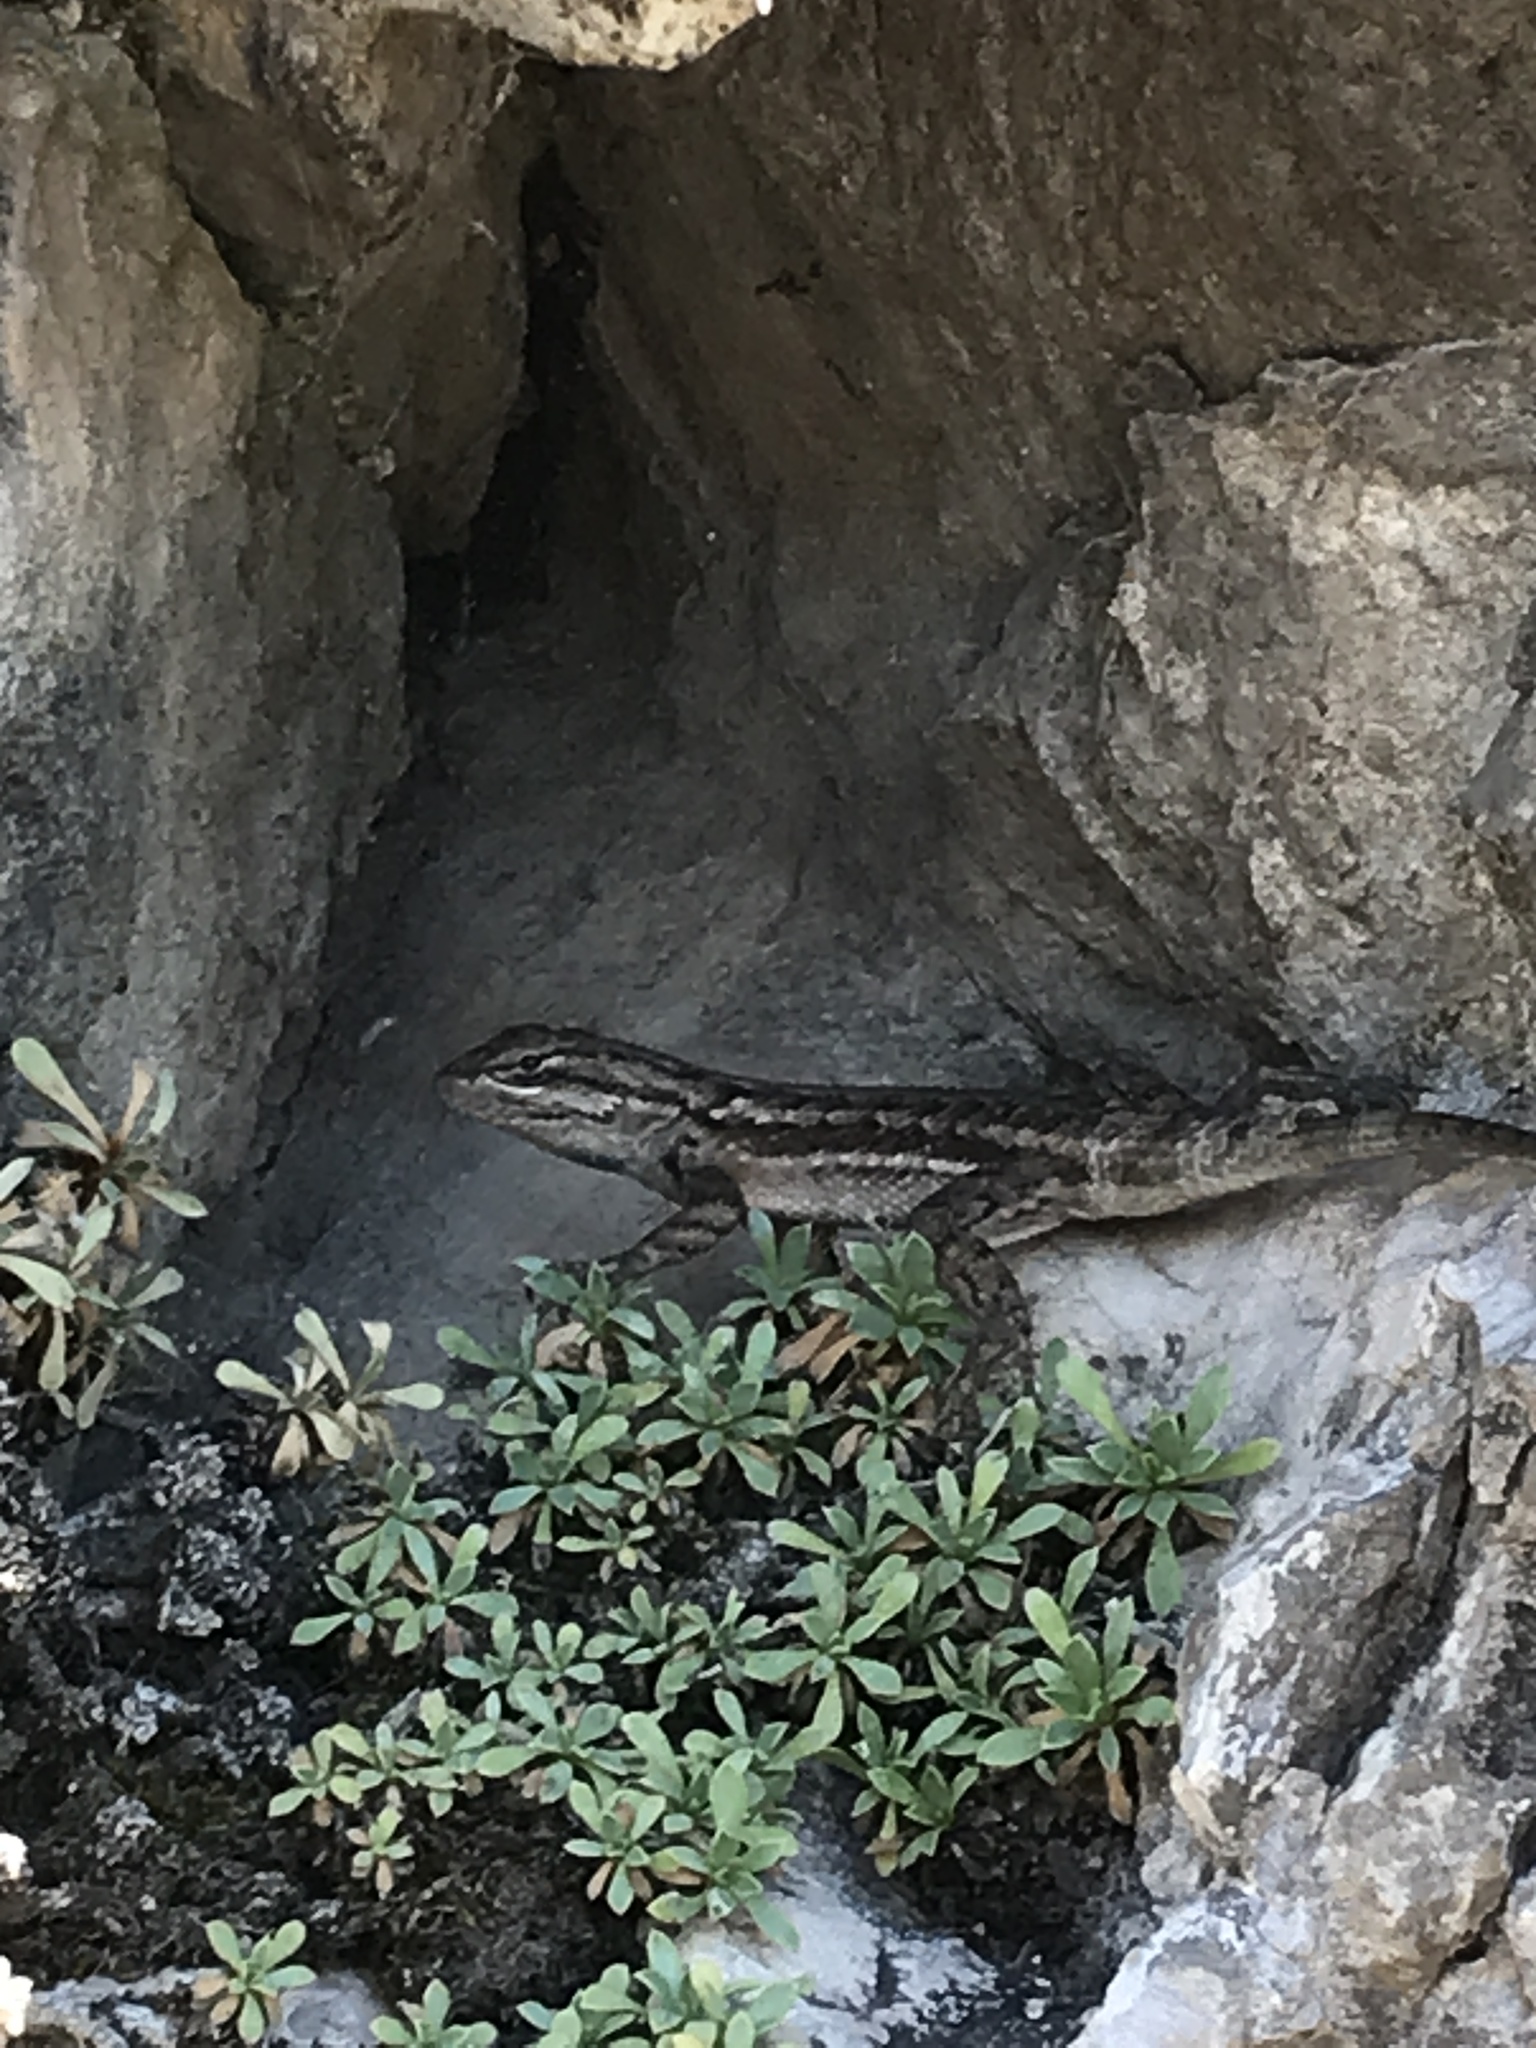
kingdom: Animalia
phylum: Chordata
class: Squamata
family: Phrynosomatidae
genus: Sceloporus
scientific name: Sceloporus cowlesi
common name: White sands prairie lizard
